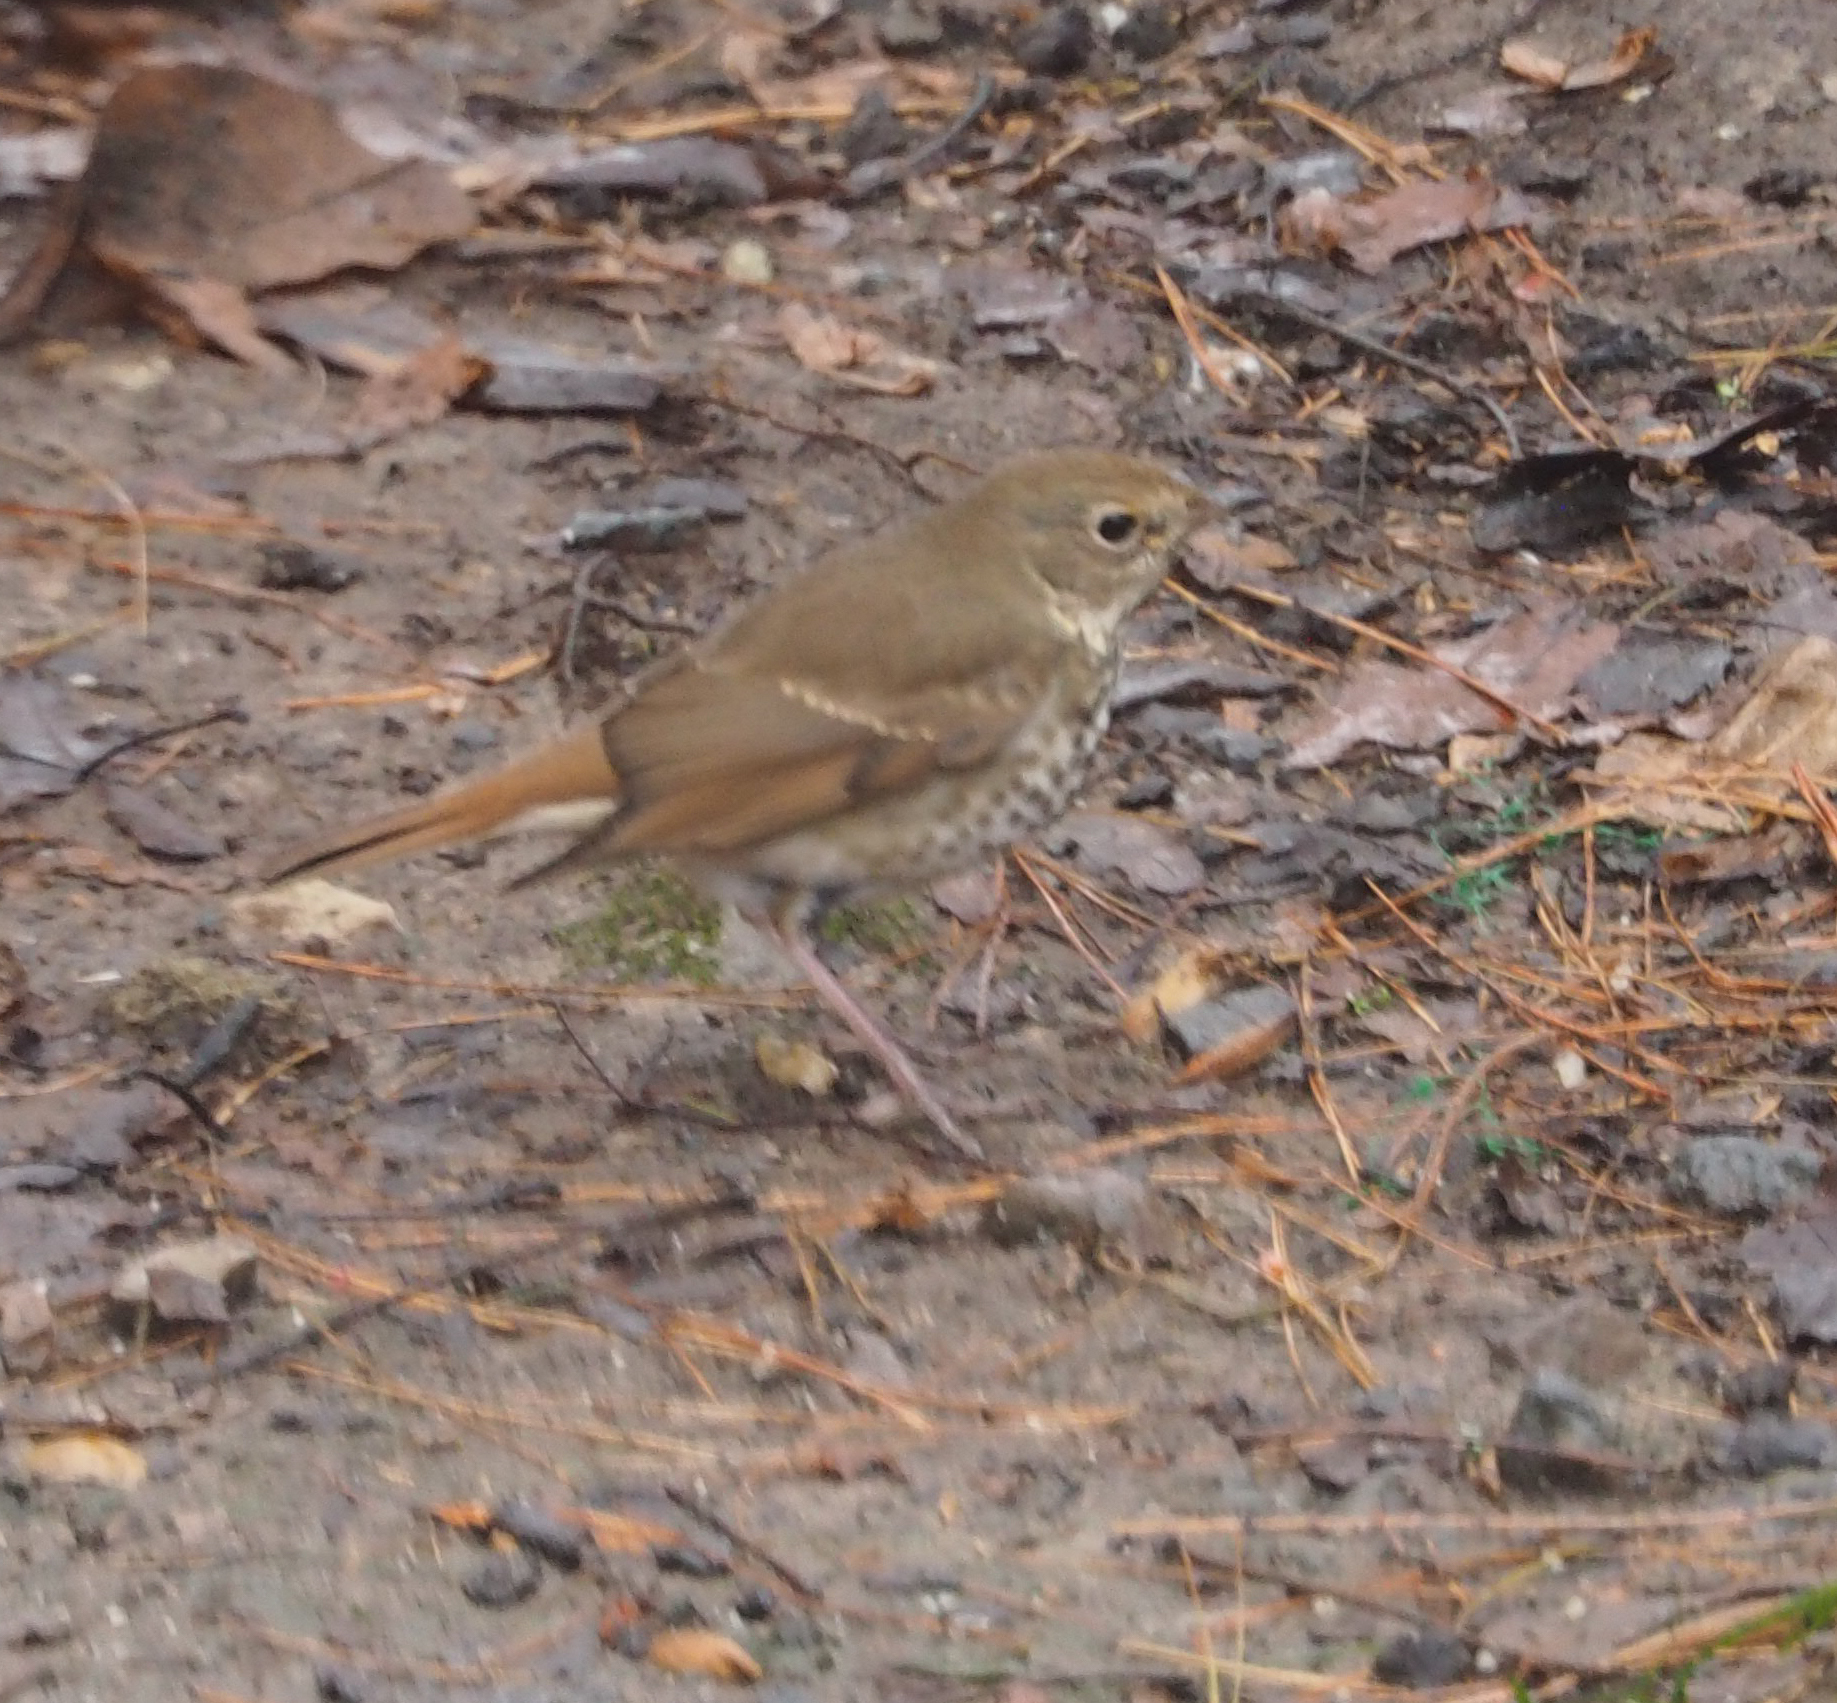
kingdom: Animalia
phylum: Chordata
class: Aves
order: Passeriformes
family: Turdidae
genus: Catharus
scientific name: Catharus guttatus
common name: Hermit thrush
